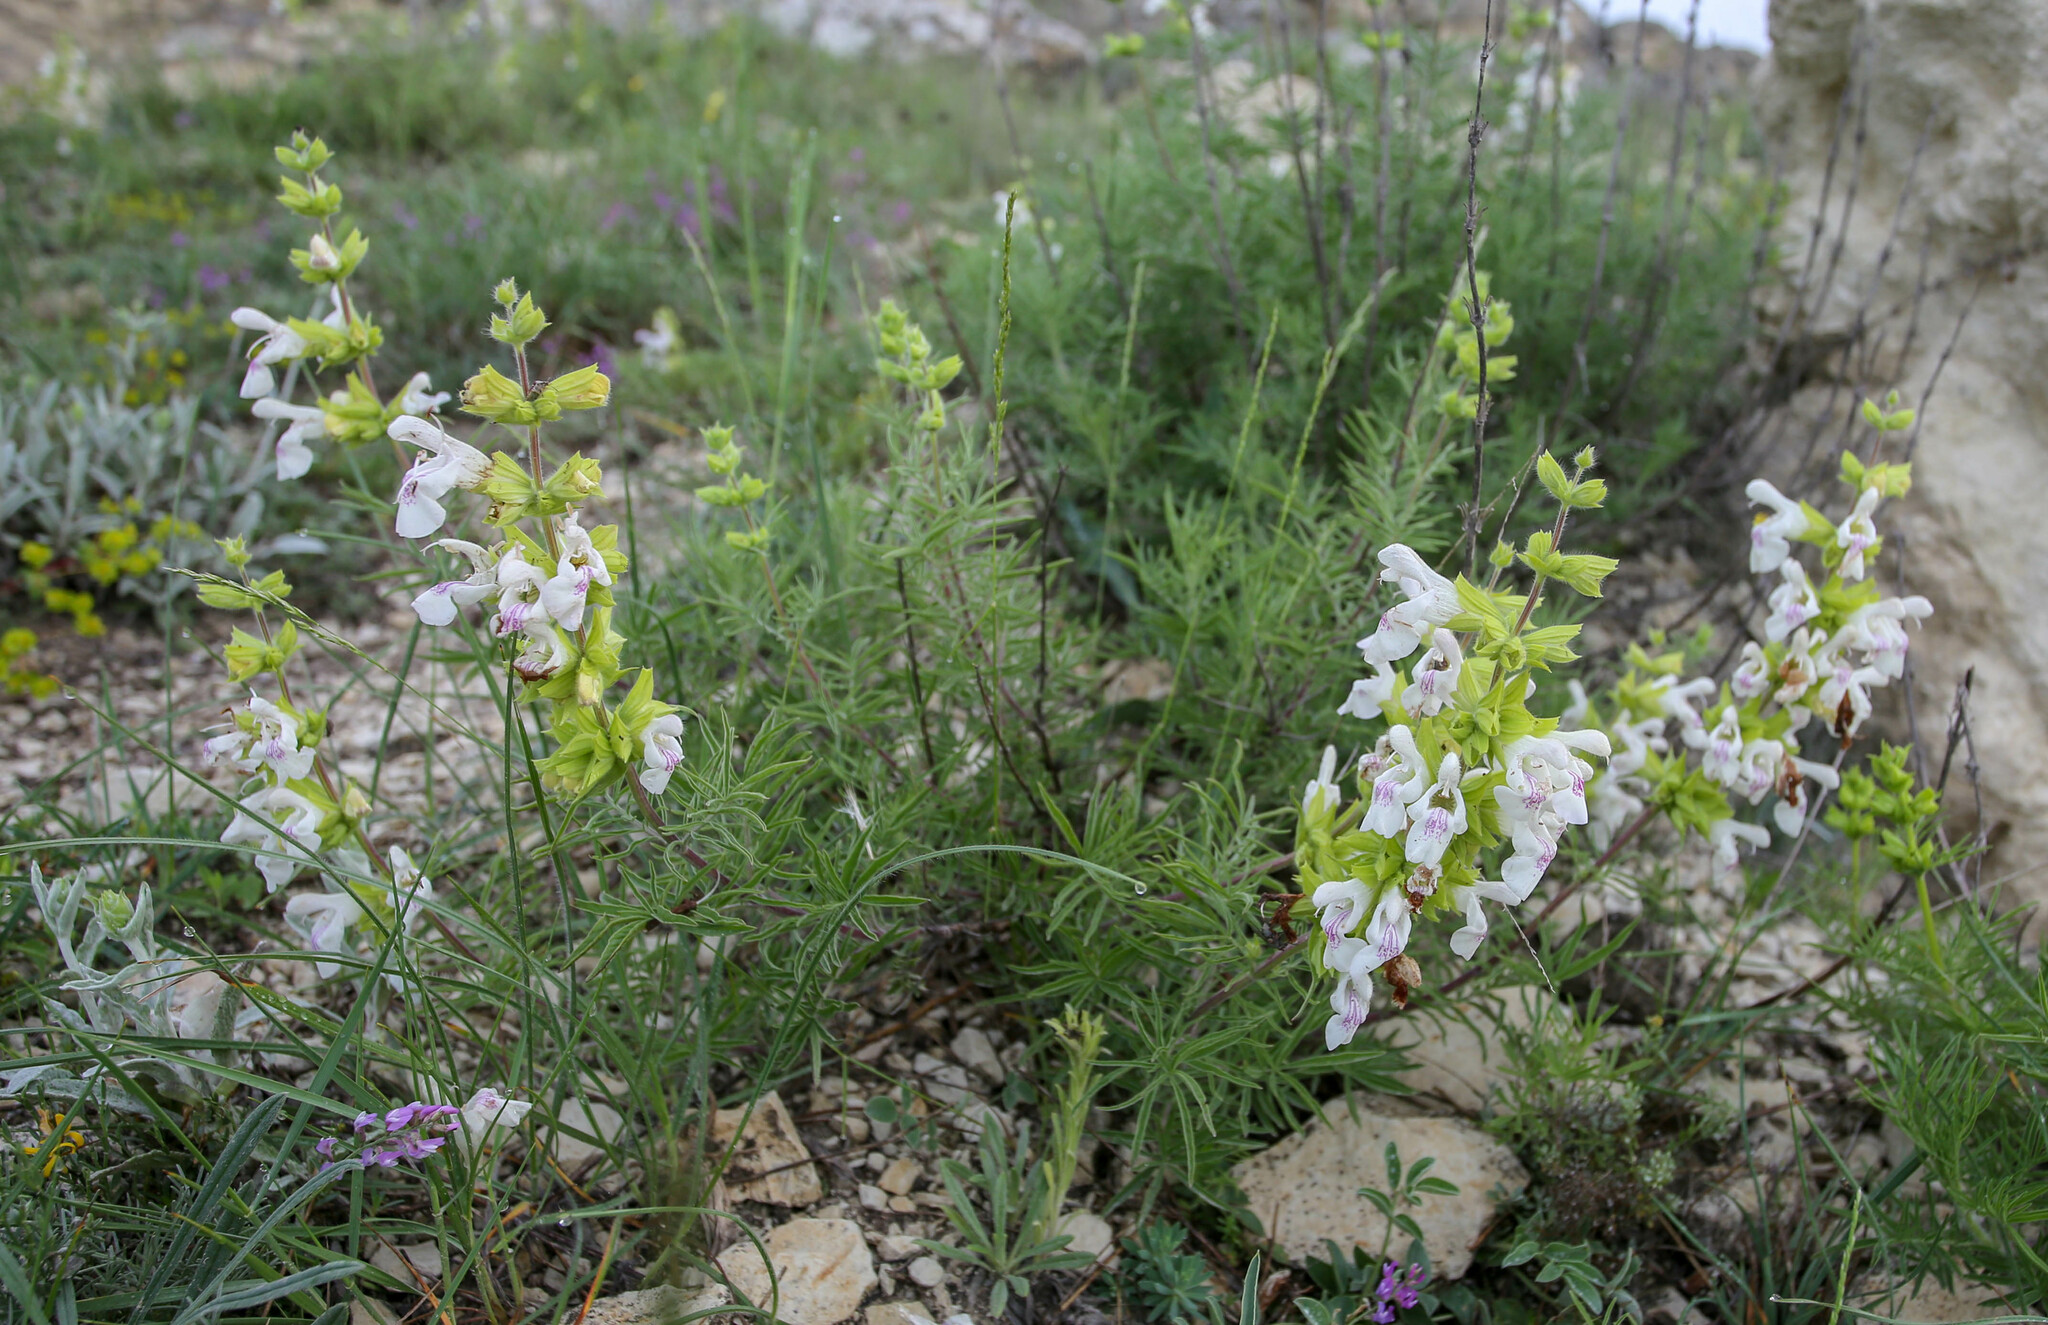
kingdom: Plantae
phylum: Tracheophyta
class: Magnoliopsida
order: Lamiales
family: Lamiaceae
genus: Salvia
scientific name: Salvia scabiosifolia
